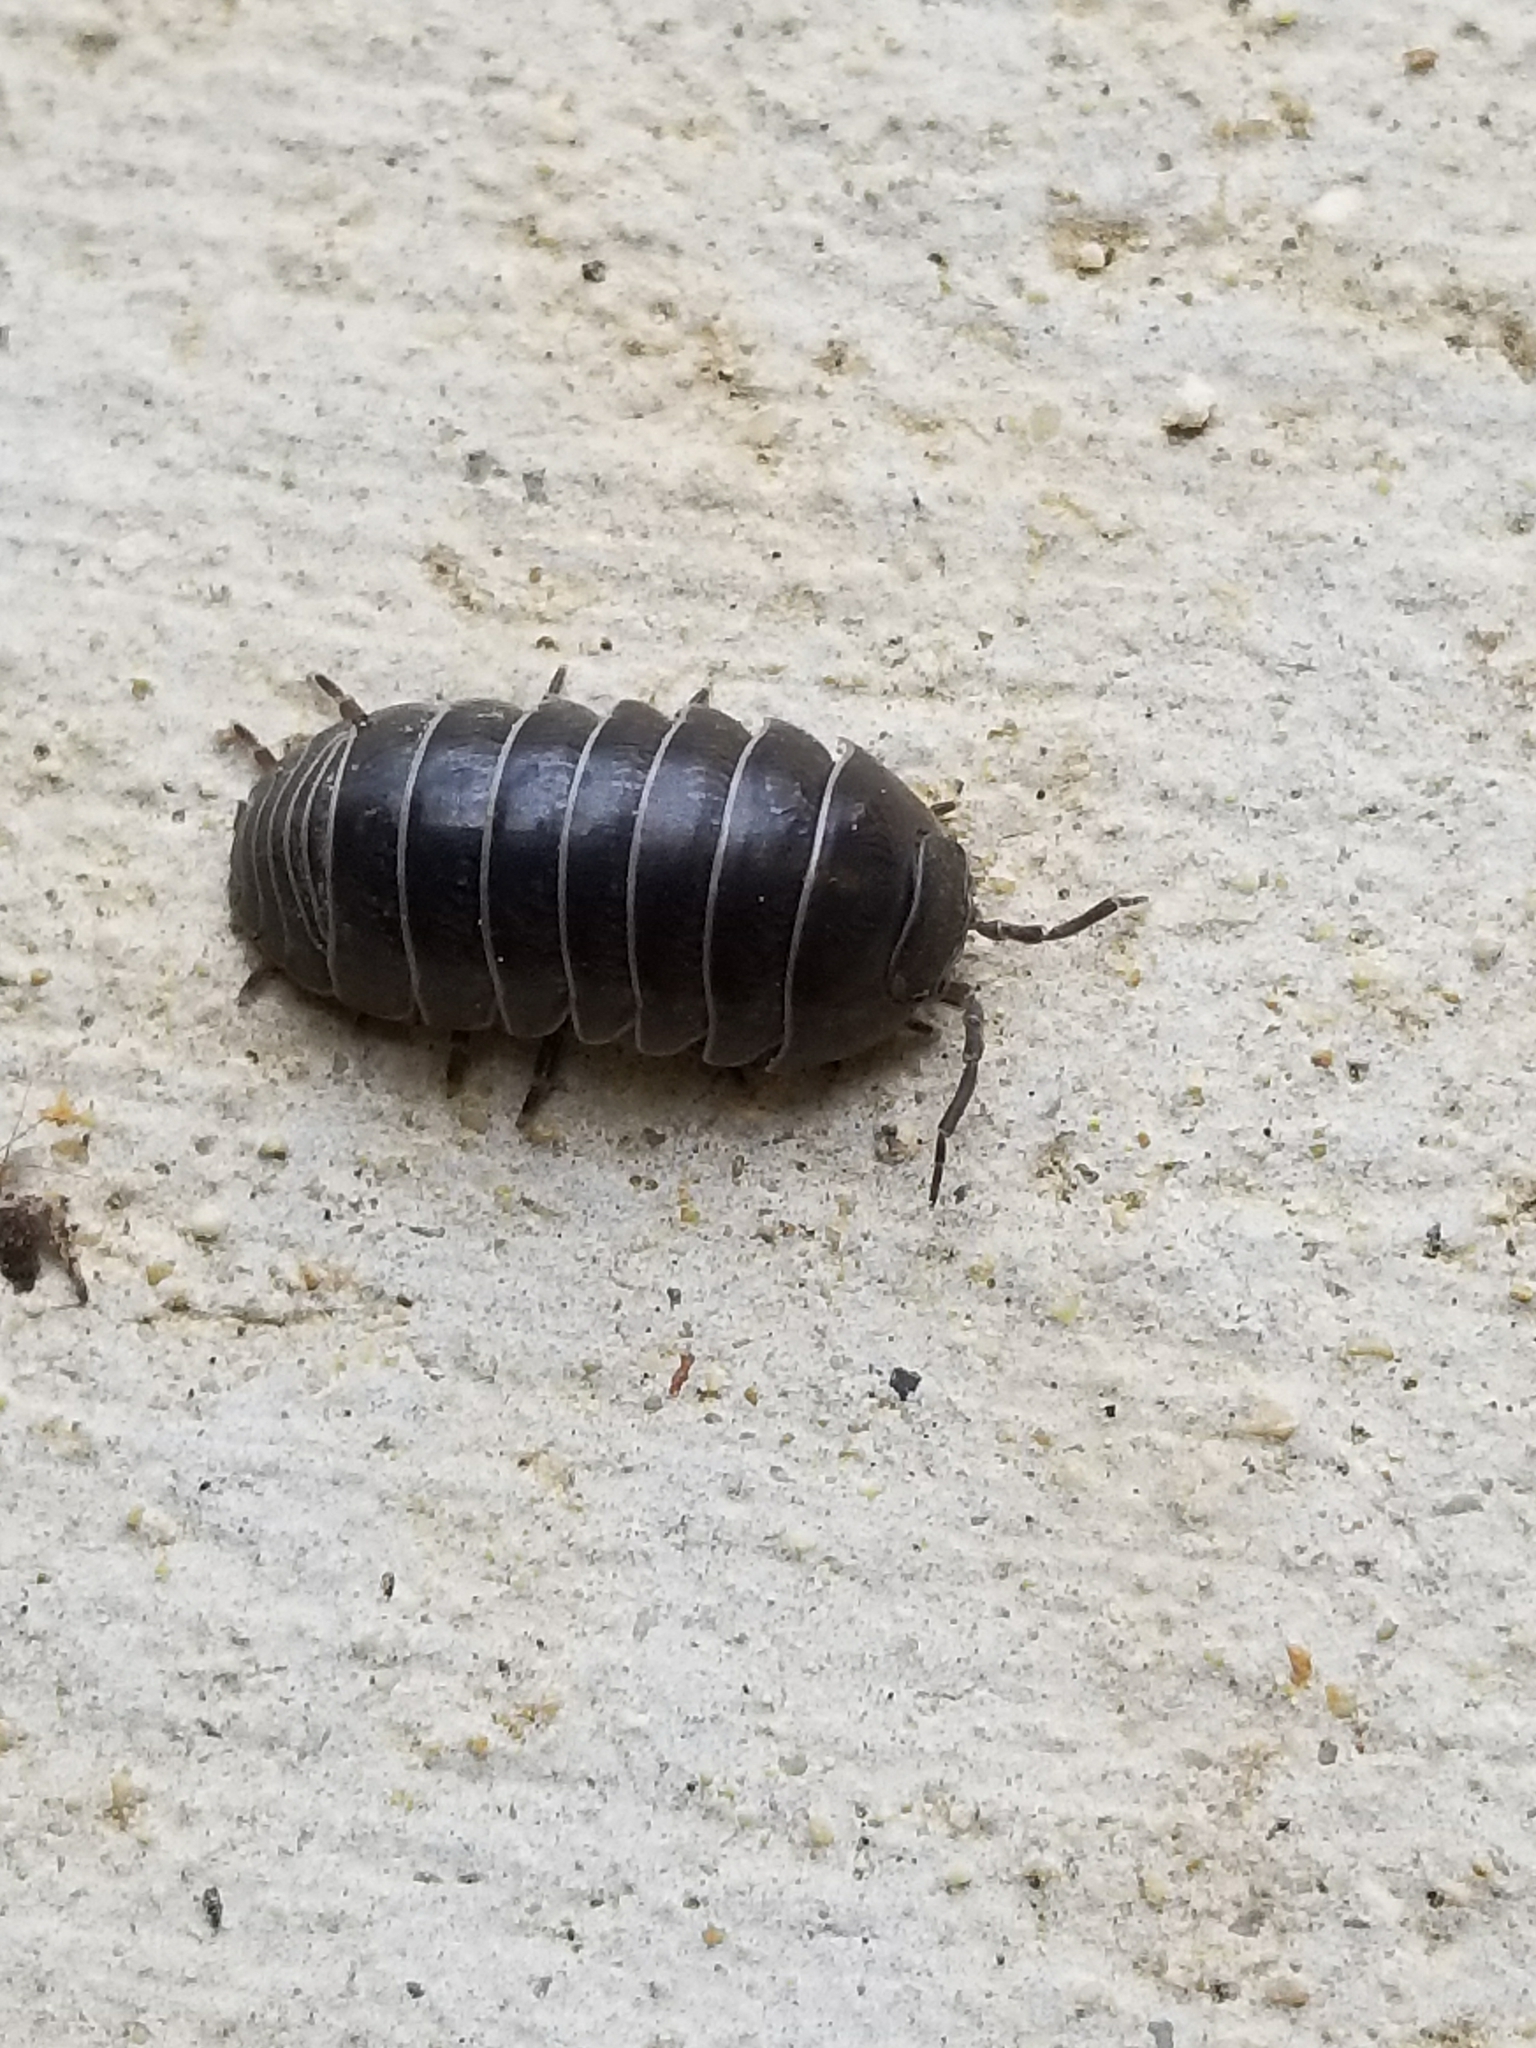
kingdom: Animalia
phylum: Arthropoda
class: Malacostraca
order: Isopoda
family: Armadillidiidae
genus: Armadillidium
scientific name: Armadillidium vulgare
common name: Common pill woodlouse
